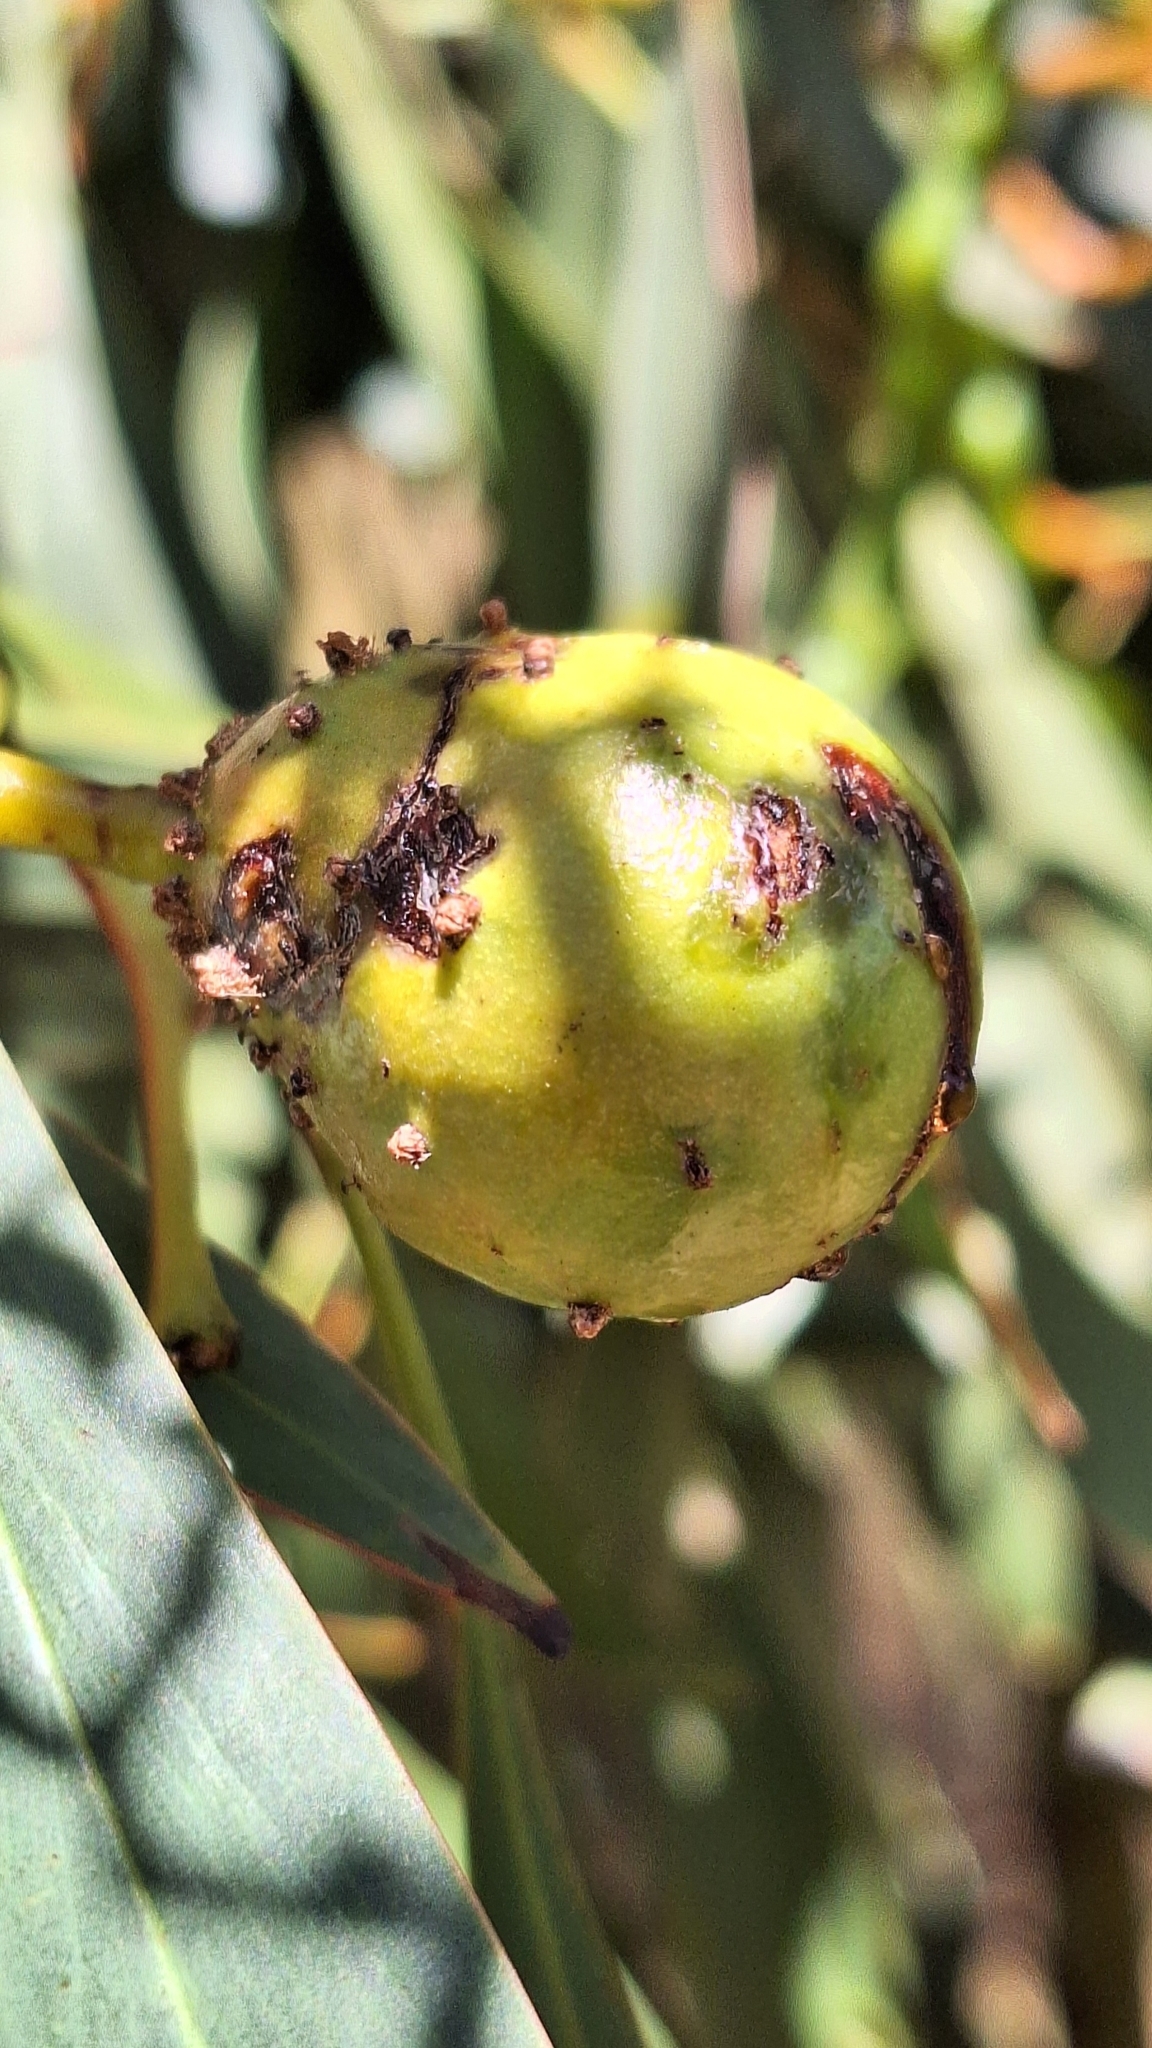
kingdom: Animalia
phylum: Arthropoda
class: Insecta
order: Hymenoptera
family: Pteromalidae
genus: Trichilogaster
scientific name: Trichilogaster signiventris
